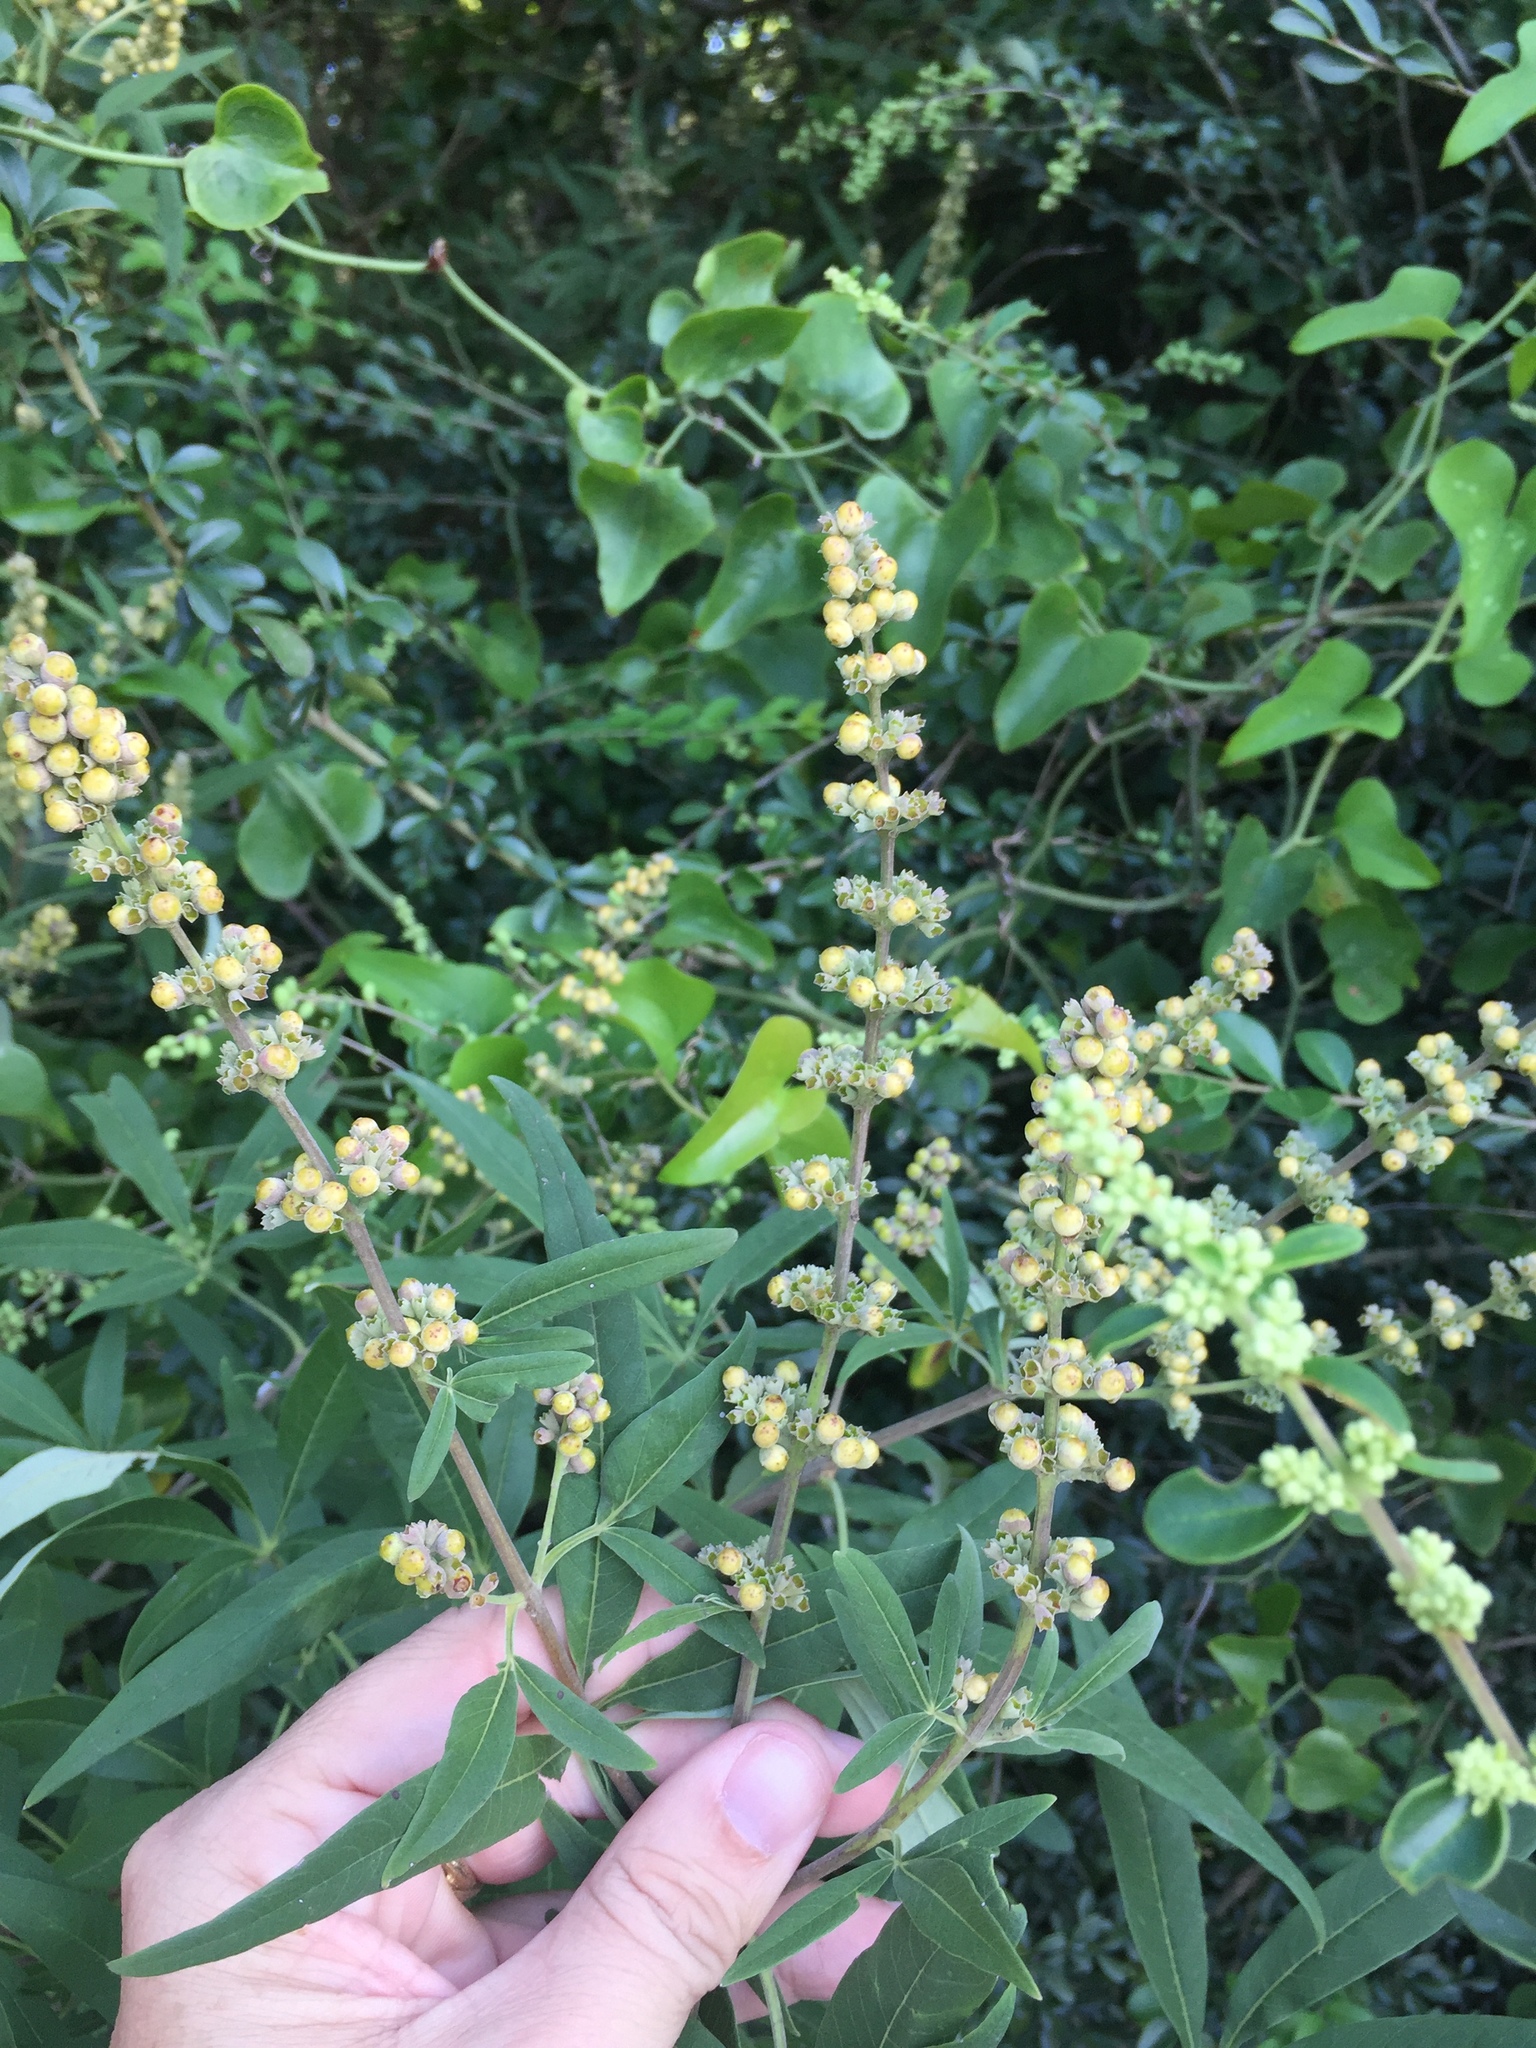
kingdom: Plantae
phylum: Tracheophyta
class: Magnoliopsida
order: Lamiales
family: Lamiaceae
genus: Vitex
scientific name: Vitex agnus-castus
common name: Chasteberry
